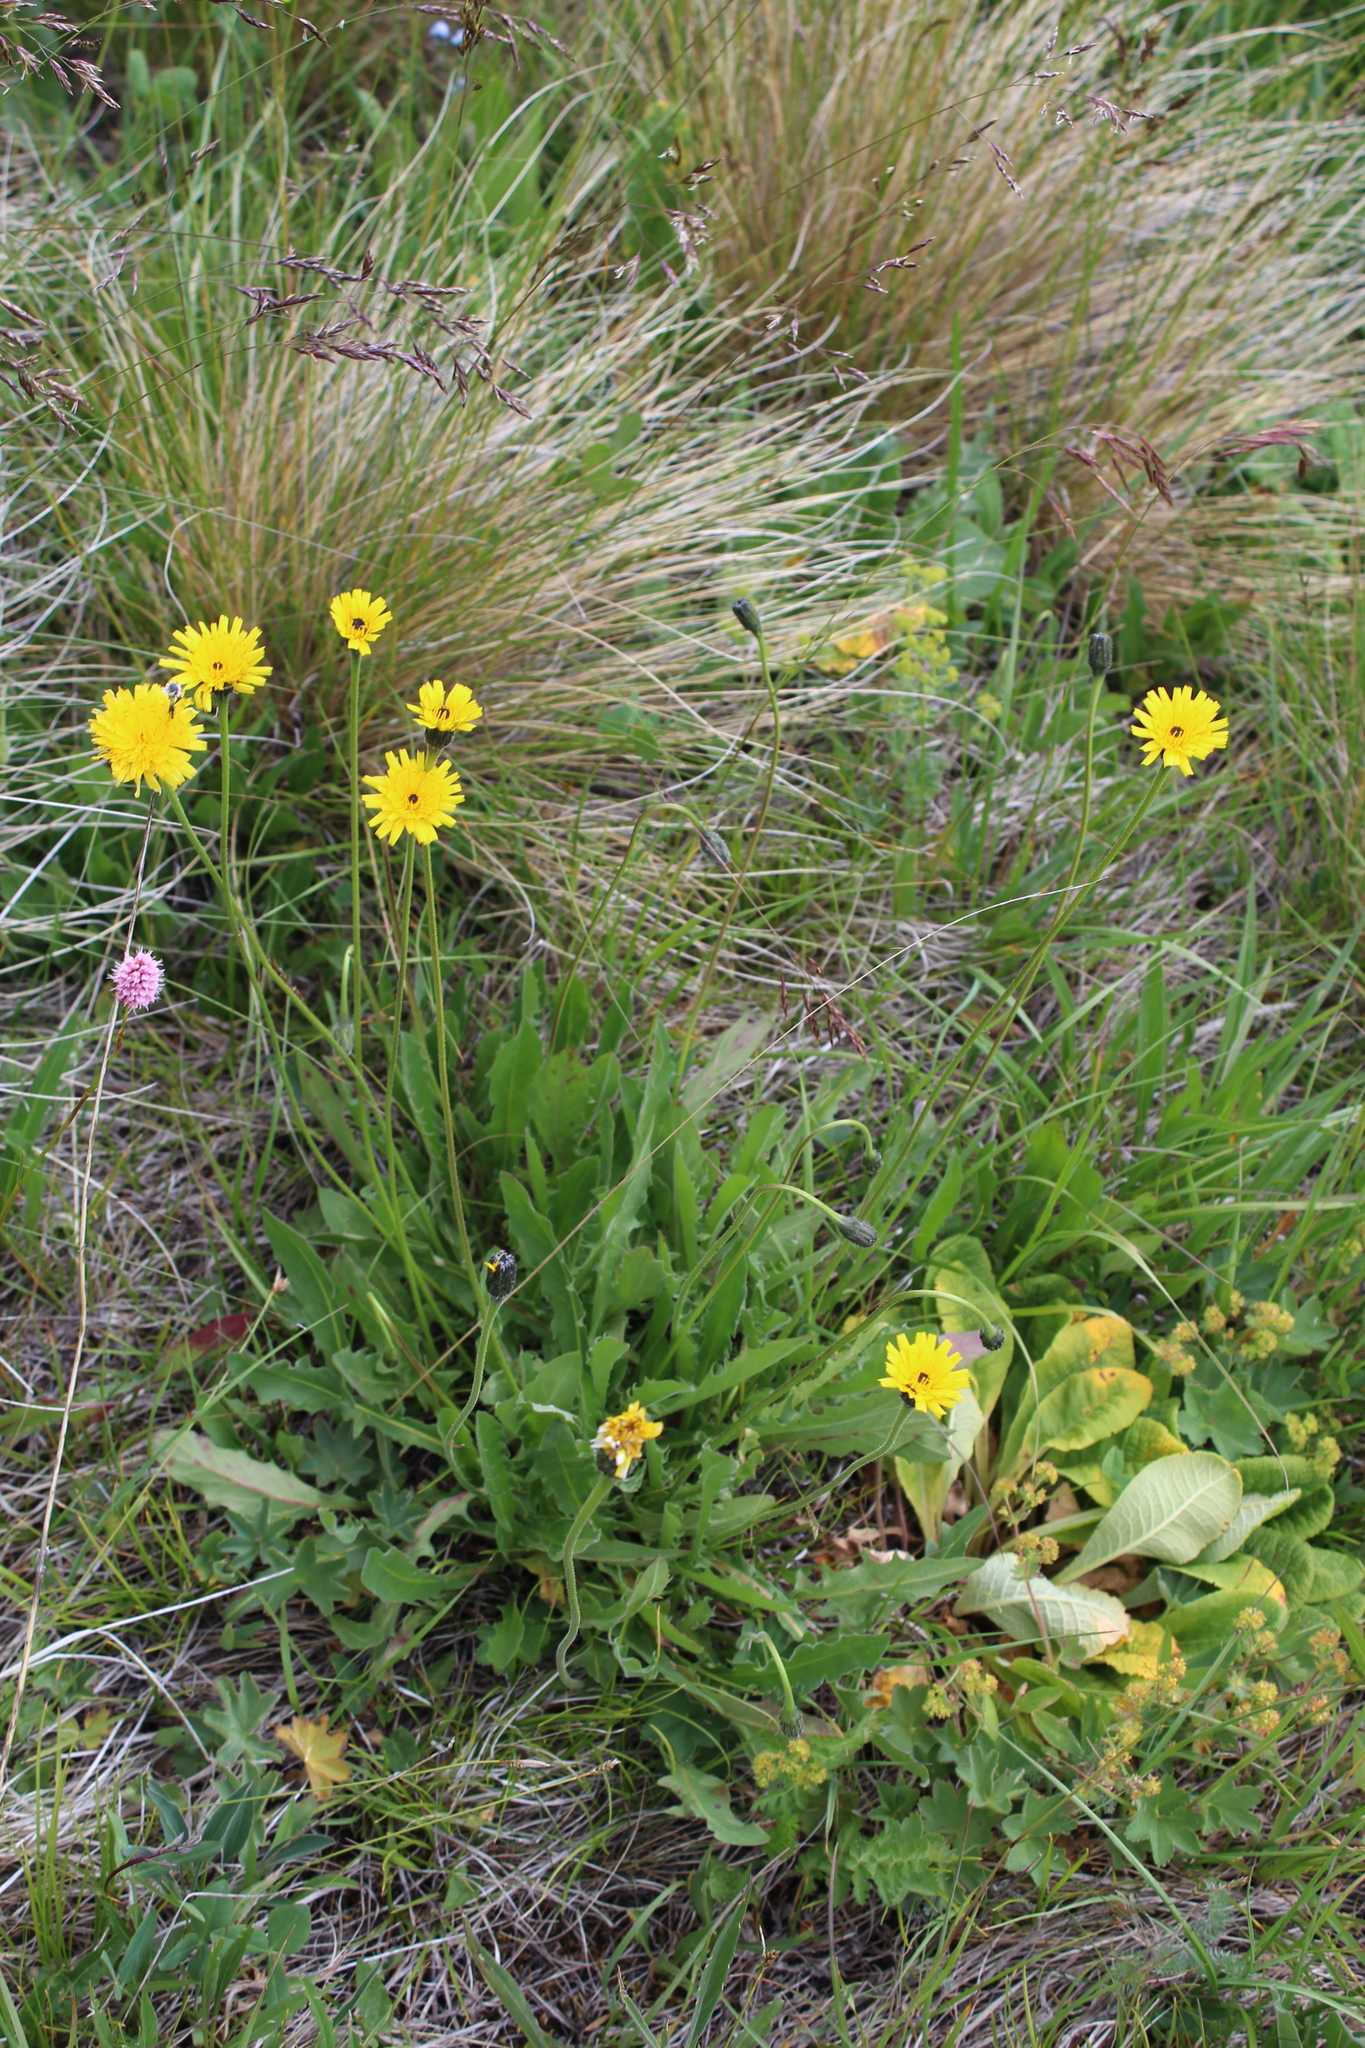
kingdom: Plantae
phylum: Tracheophyta
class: Magnoliopsida
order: Asterales
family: Asteraceae
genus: Leontodon
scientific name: Leontodon caucasicus
